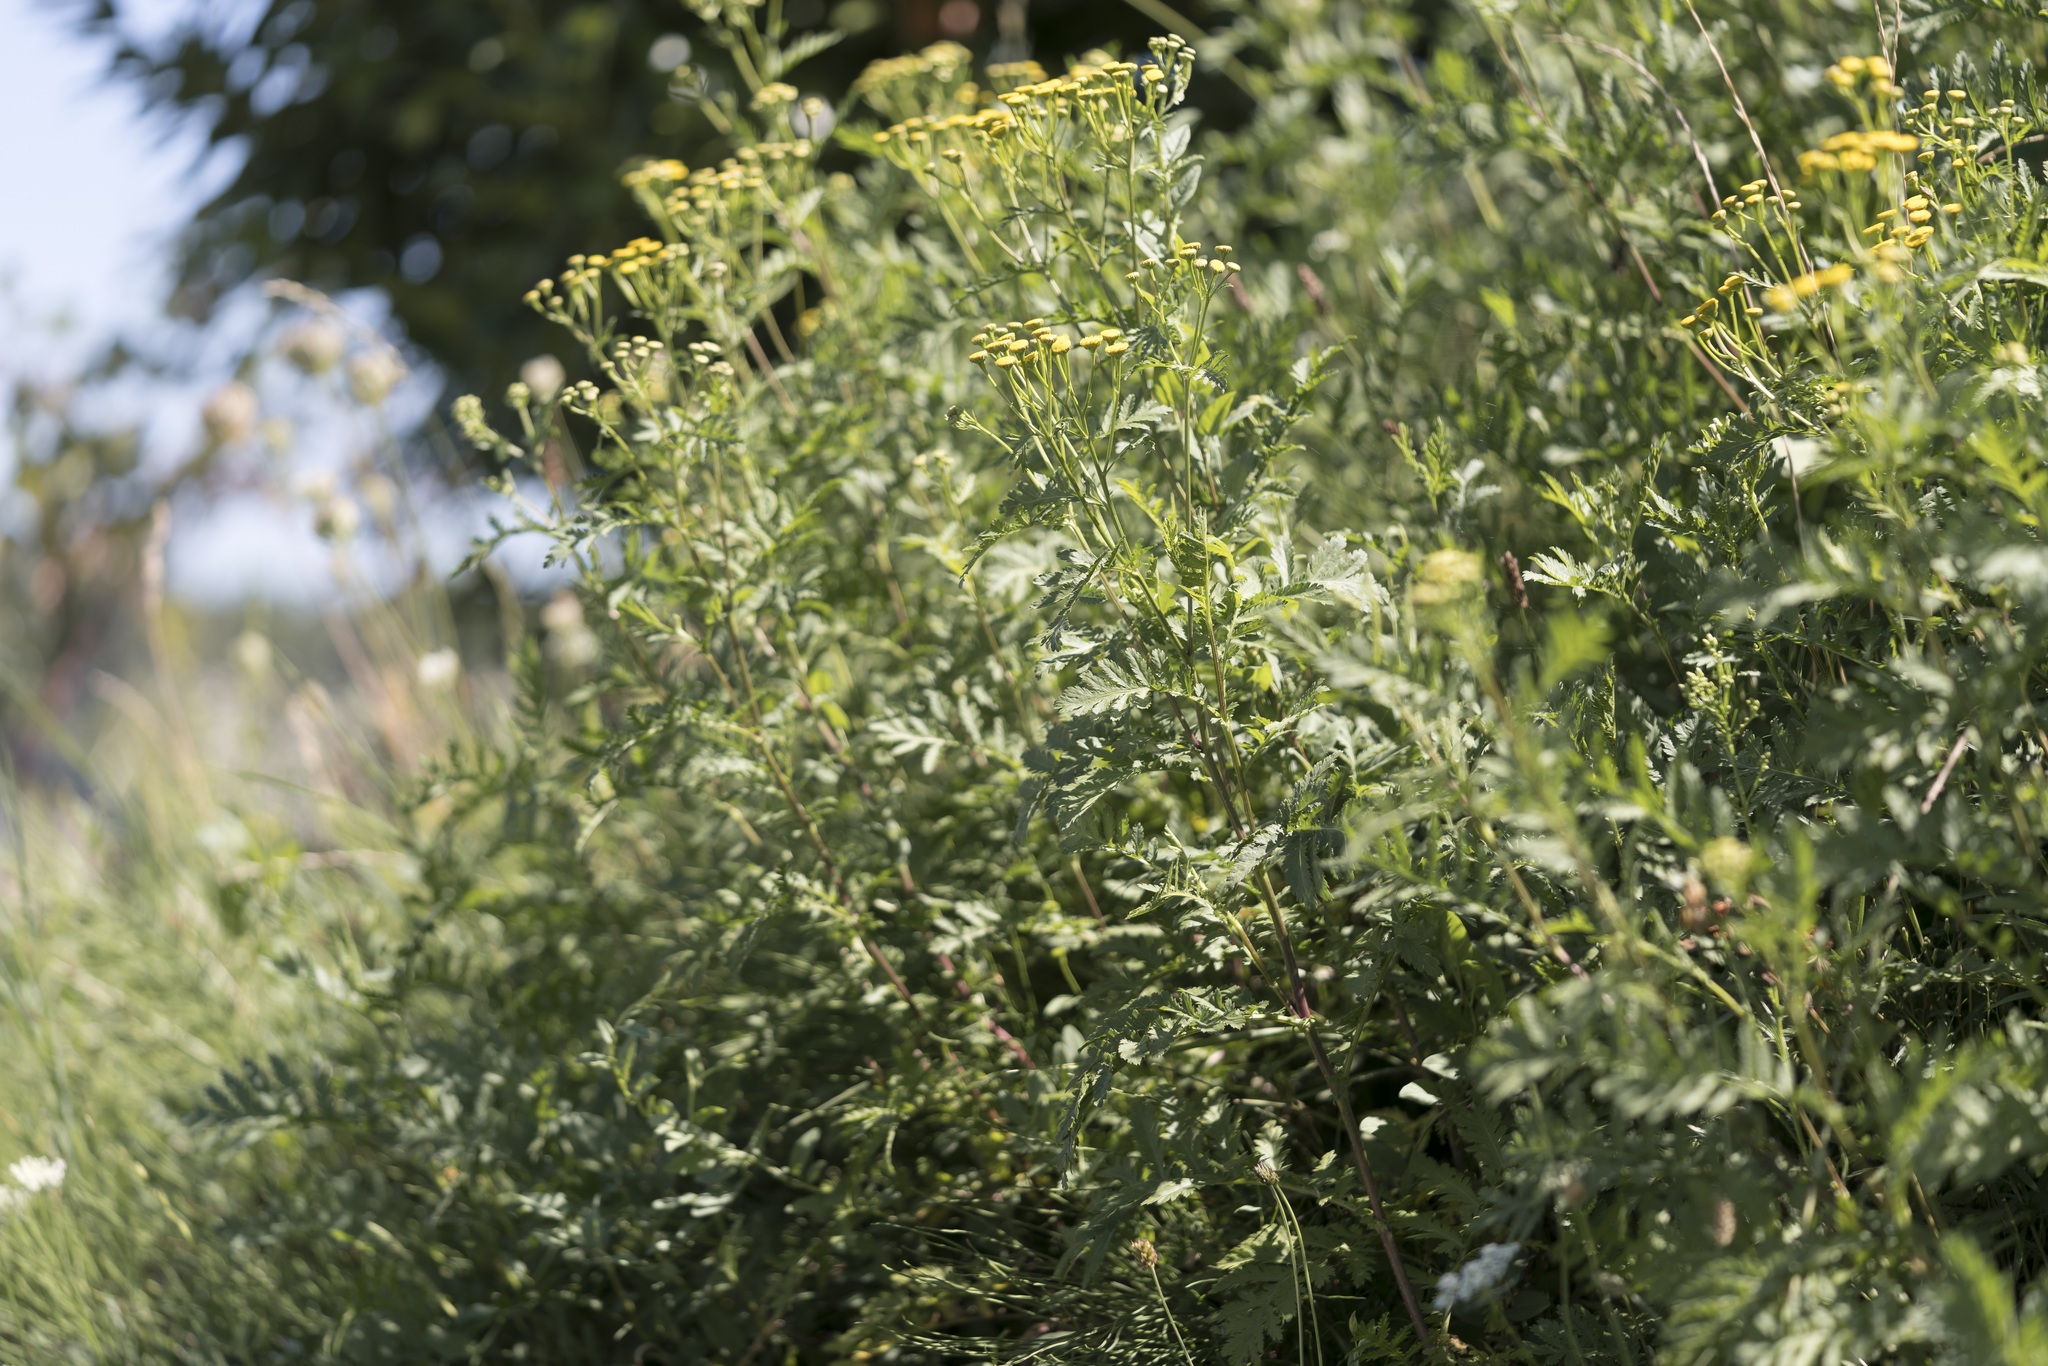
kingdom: Plantae
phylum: Tracheophyta
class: Magnoliopsida
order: Asterales
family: Asteraceae
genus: Tanacetum
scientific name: Tanacetum vulgare
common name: Common tansy
